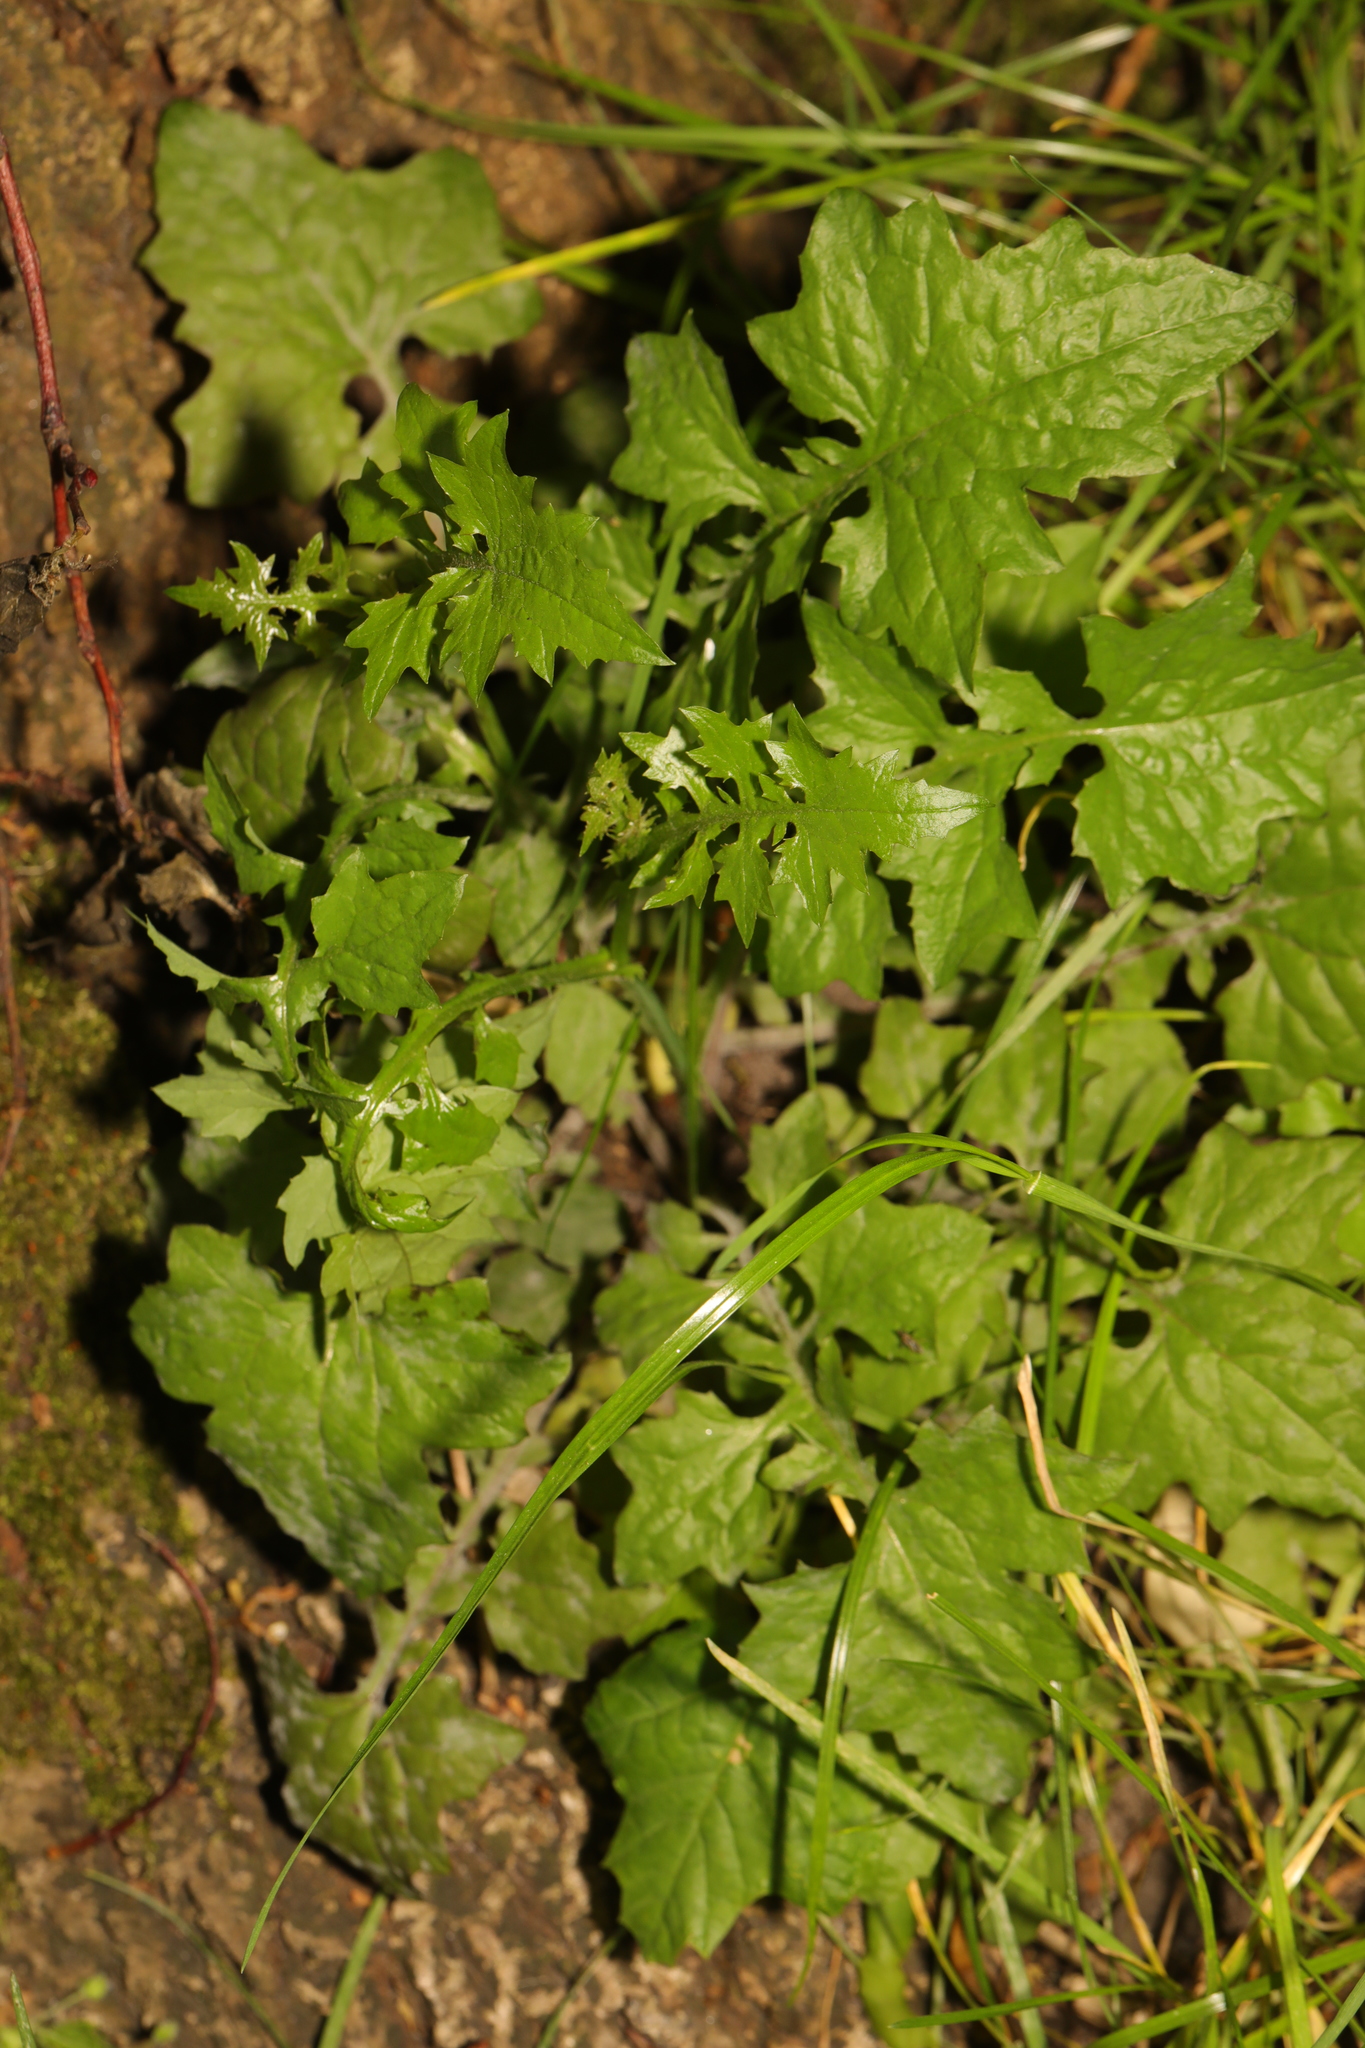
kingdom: Plantae
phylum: Tracheophyta
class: Magnoliopsida
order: Asterales
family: Asteraceae
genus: Mycelis
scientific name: Mycelis muralis
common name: Wall lettuce
